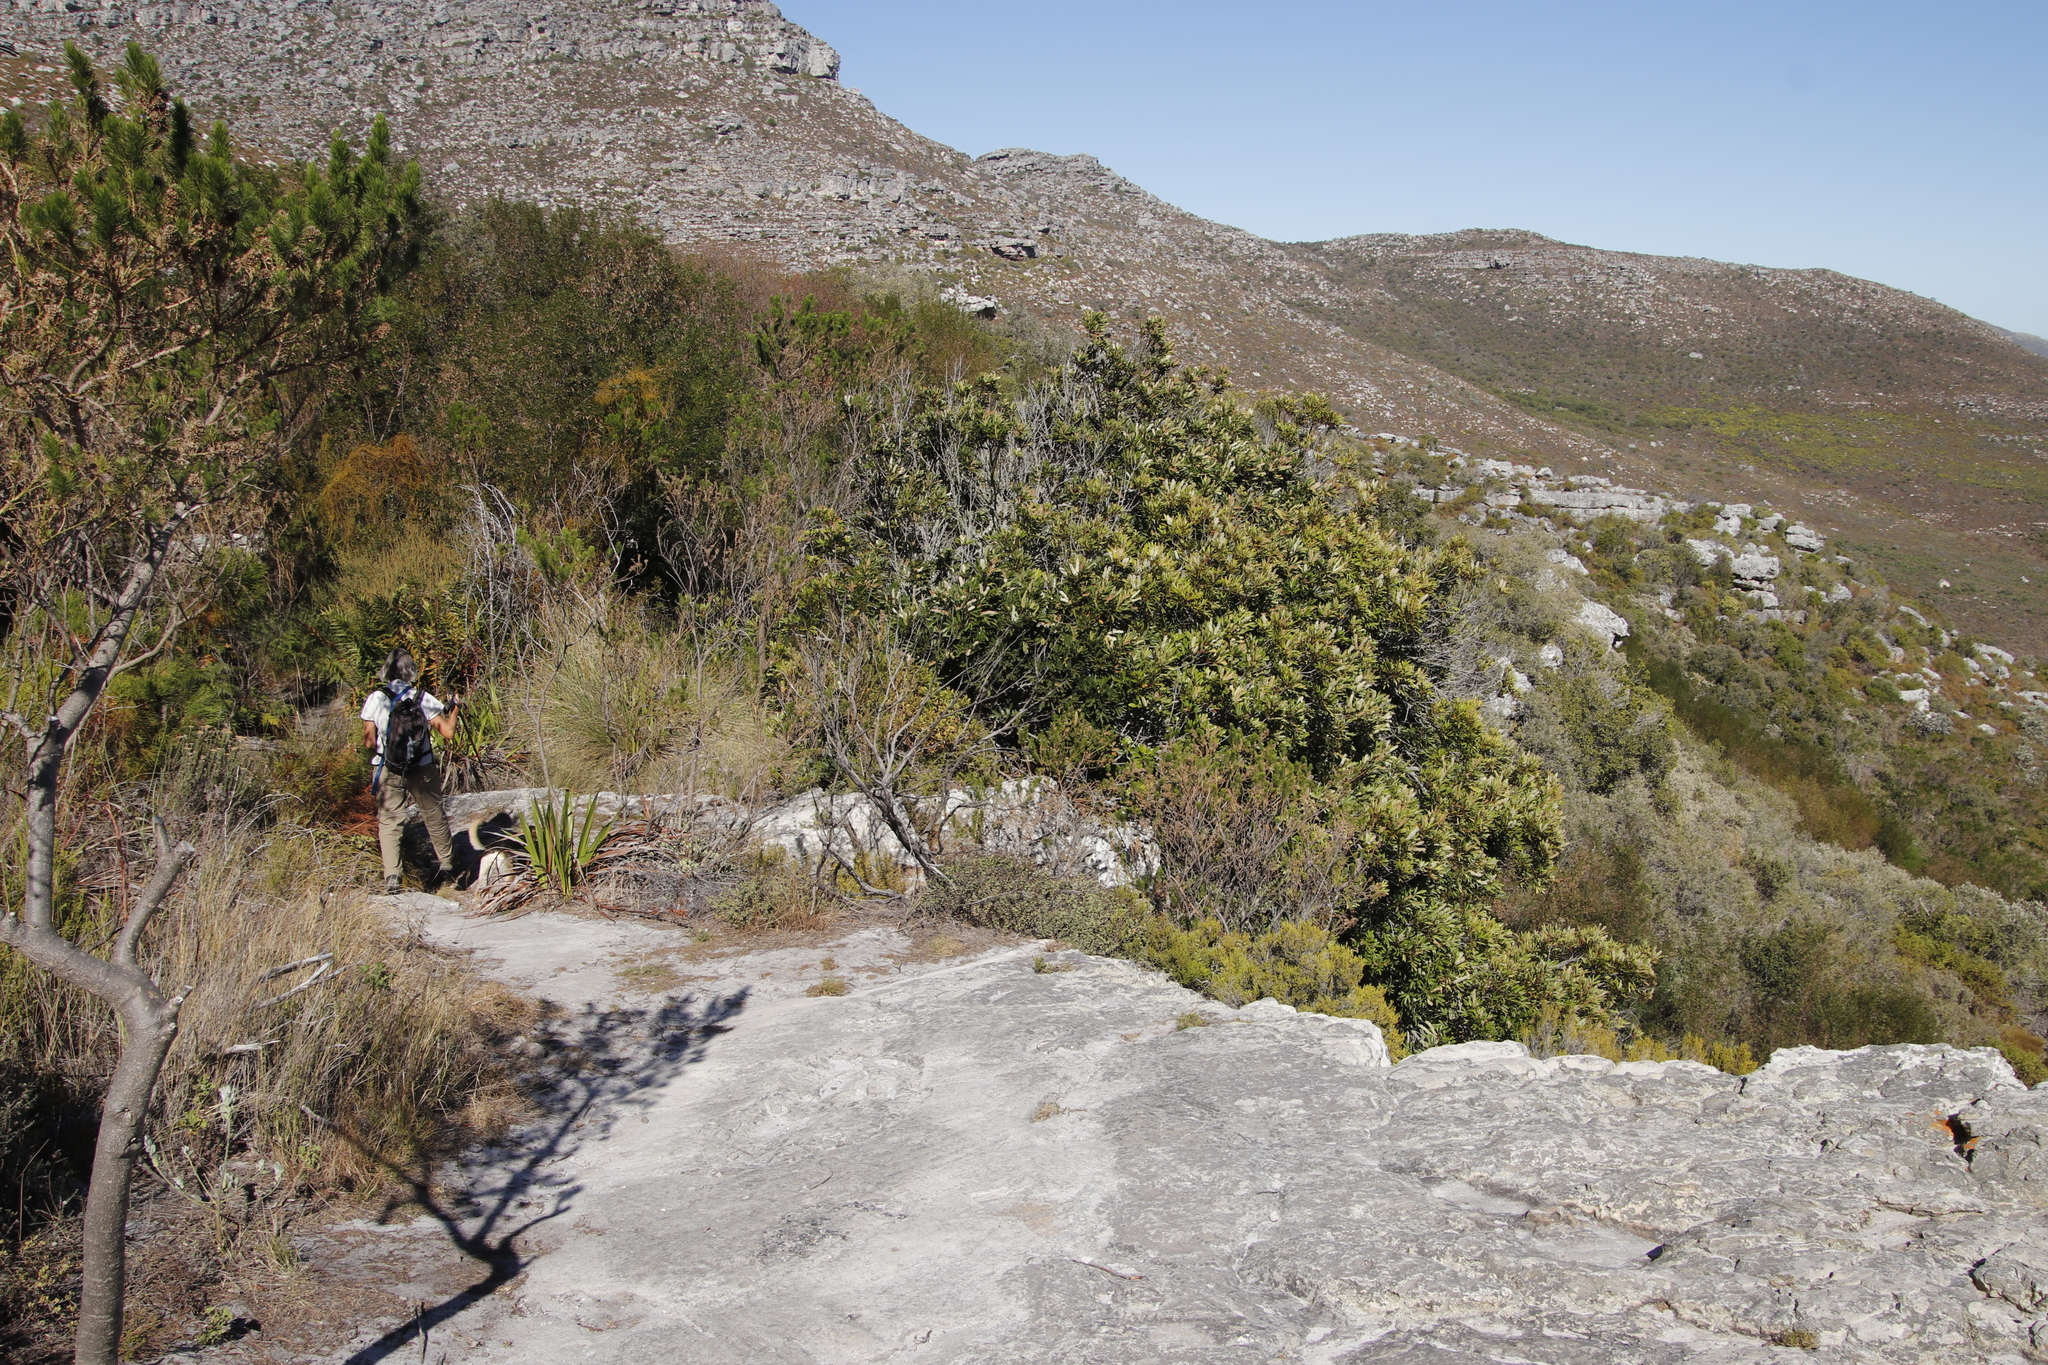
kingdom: Plantae
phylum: Tracheophyta
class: Magnoliopsida
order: Oxalidales
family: Cunoniaceae
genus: Cunonia
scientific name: Cunonia capensis
